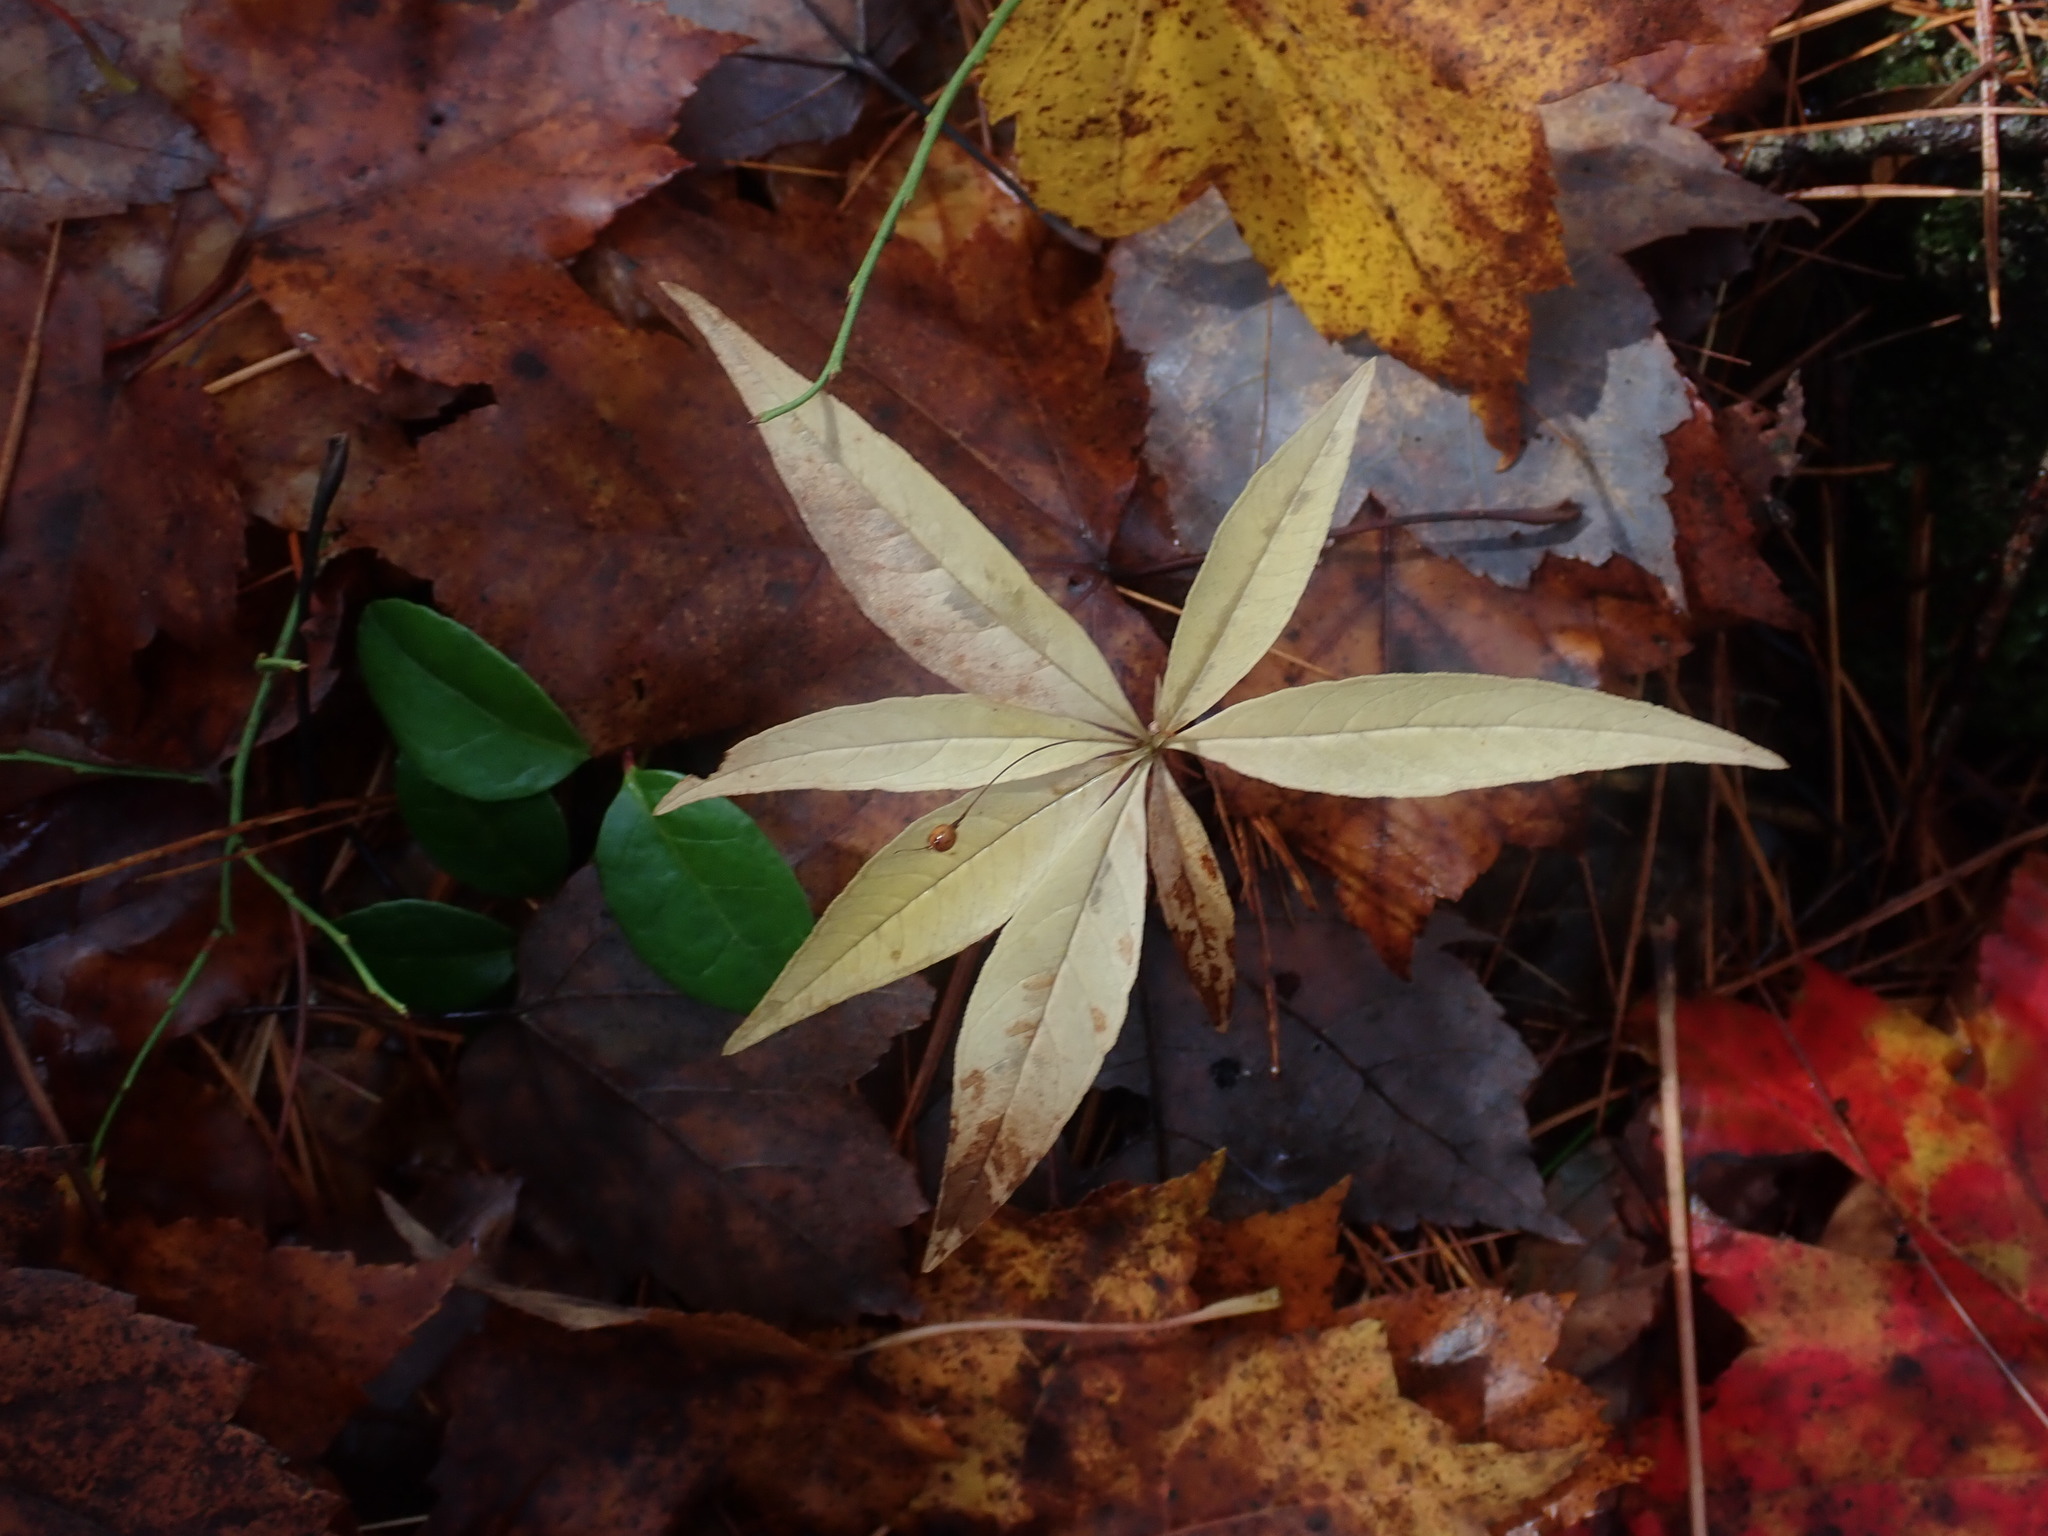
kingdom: Plantae
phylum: Tracheophyta
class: Magnoliopsida
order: Ericales
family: Primulaceae
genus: Lysimachia
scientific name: Lysimachia borealis
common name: American starflower
